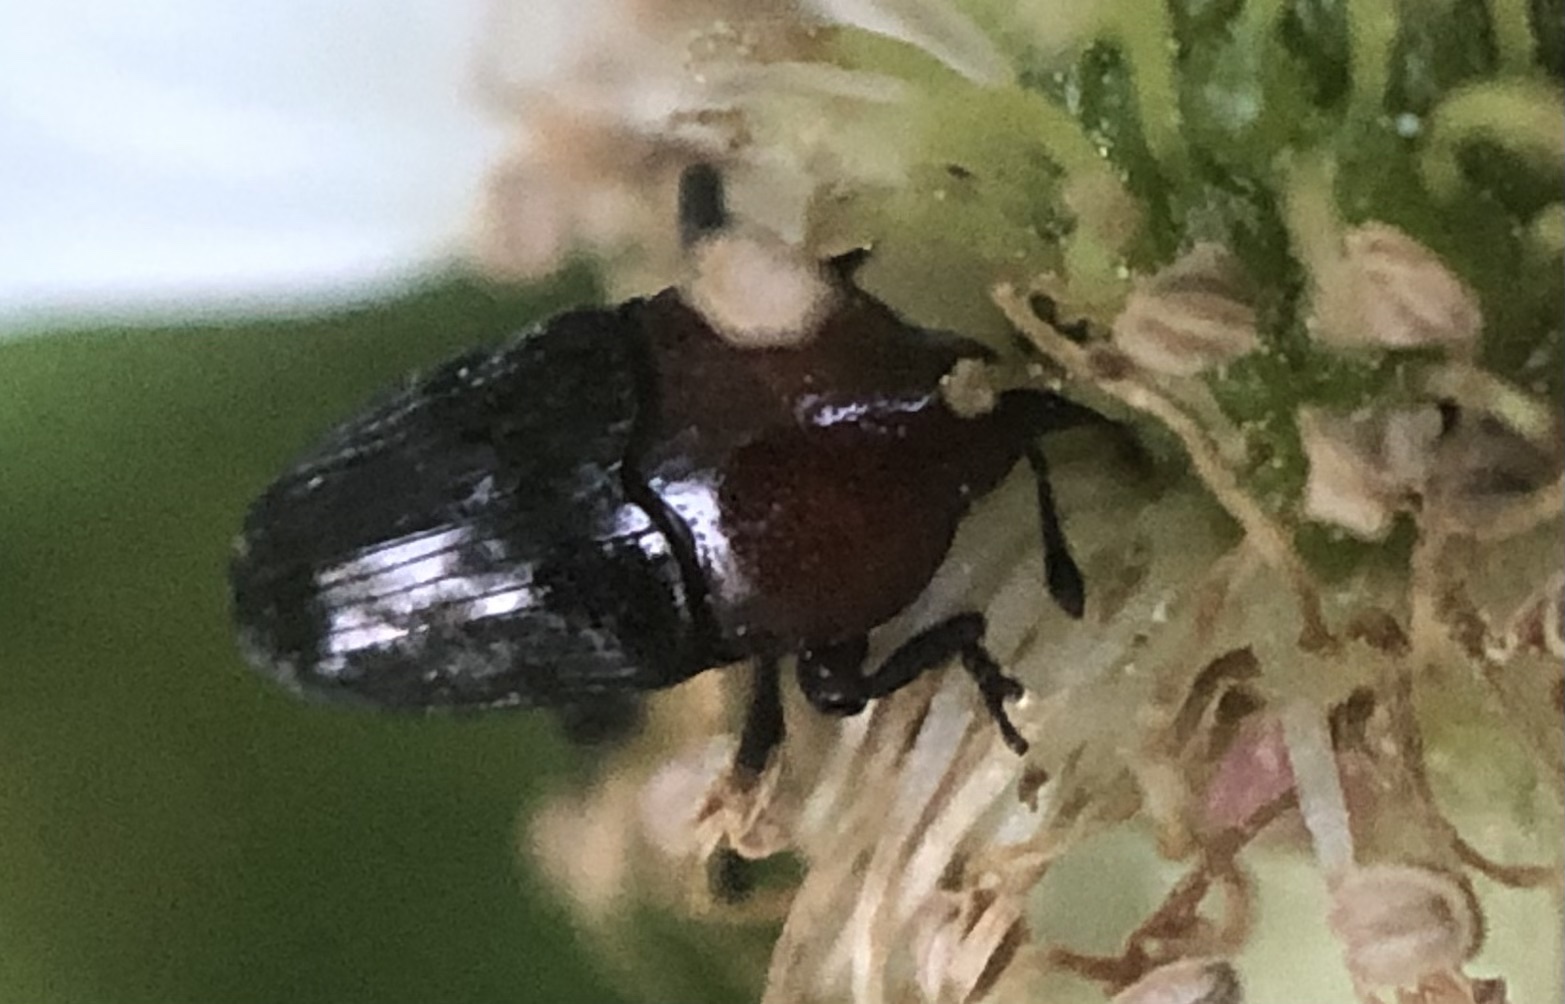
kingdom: Animalia
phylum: Arthropoda
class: Insecta
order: Coleoptera
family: Curculionidae
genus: Madarellus
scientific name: Madarellus undulatus
